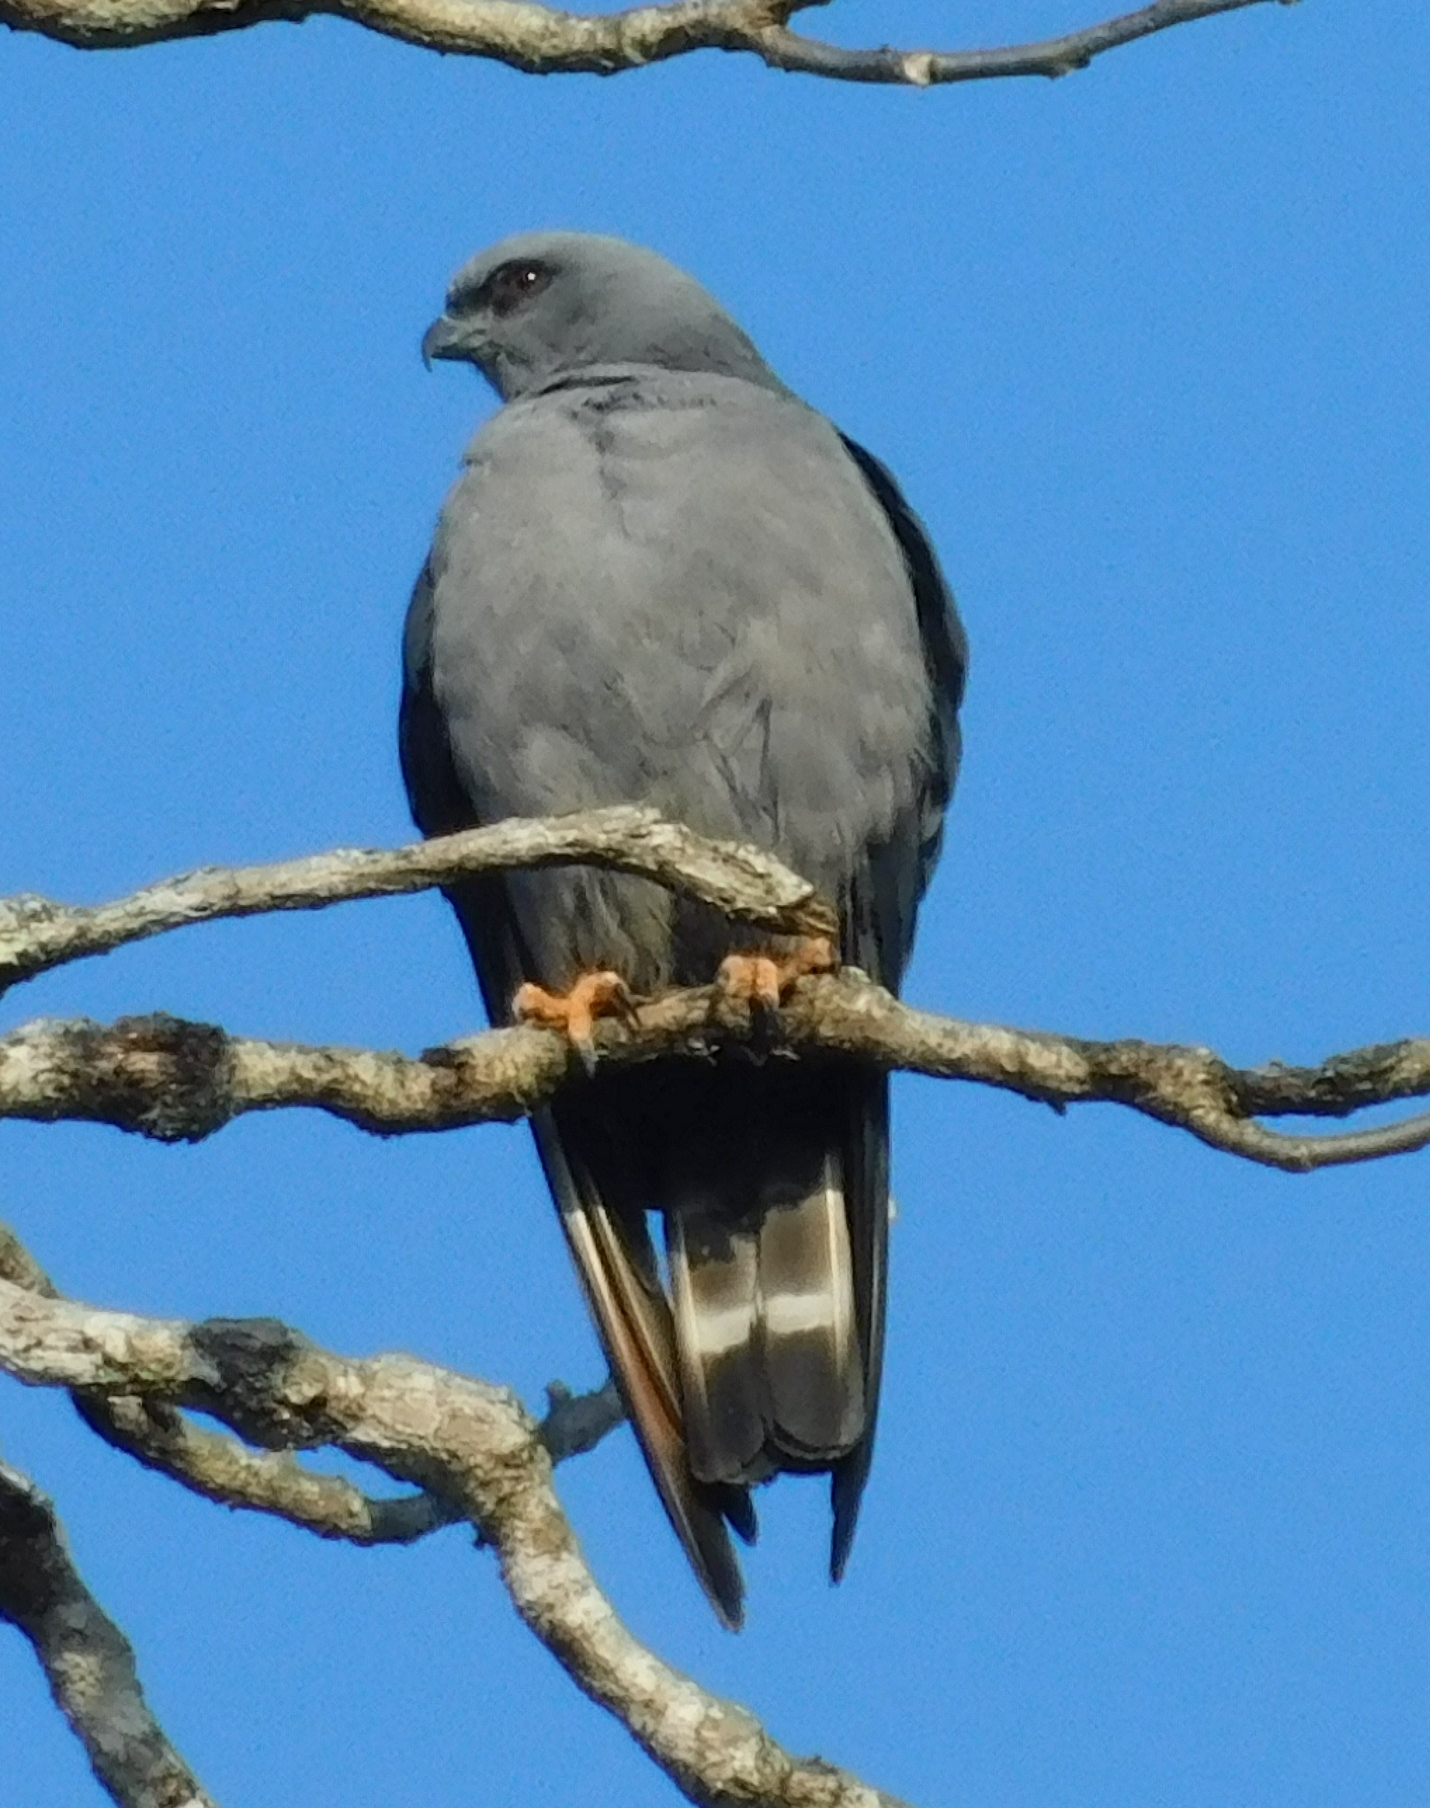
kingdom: Animalia
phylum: Chordata
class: Aves
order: Accipitriformes
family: Accipitridae
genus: Ictinia
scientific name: Ictinia plumbea
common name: Plumbeous kite
